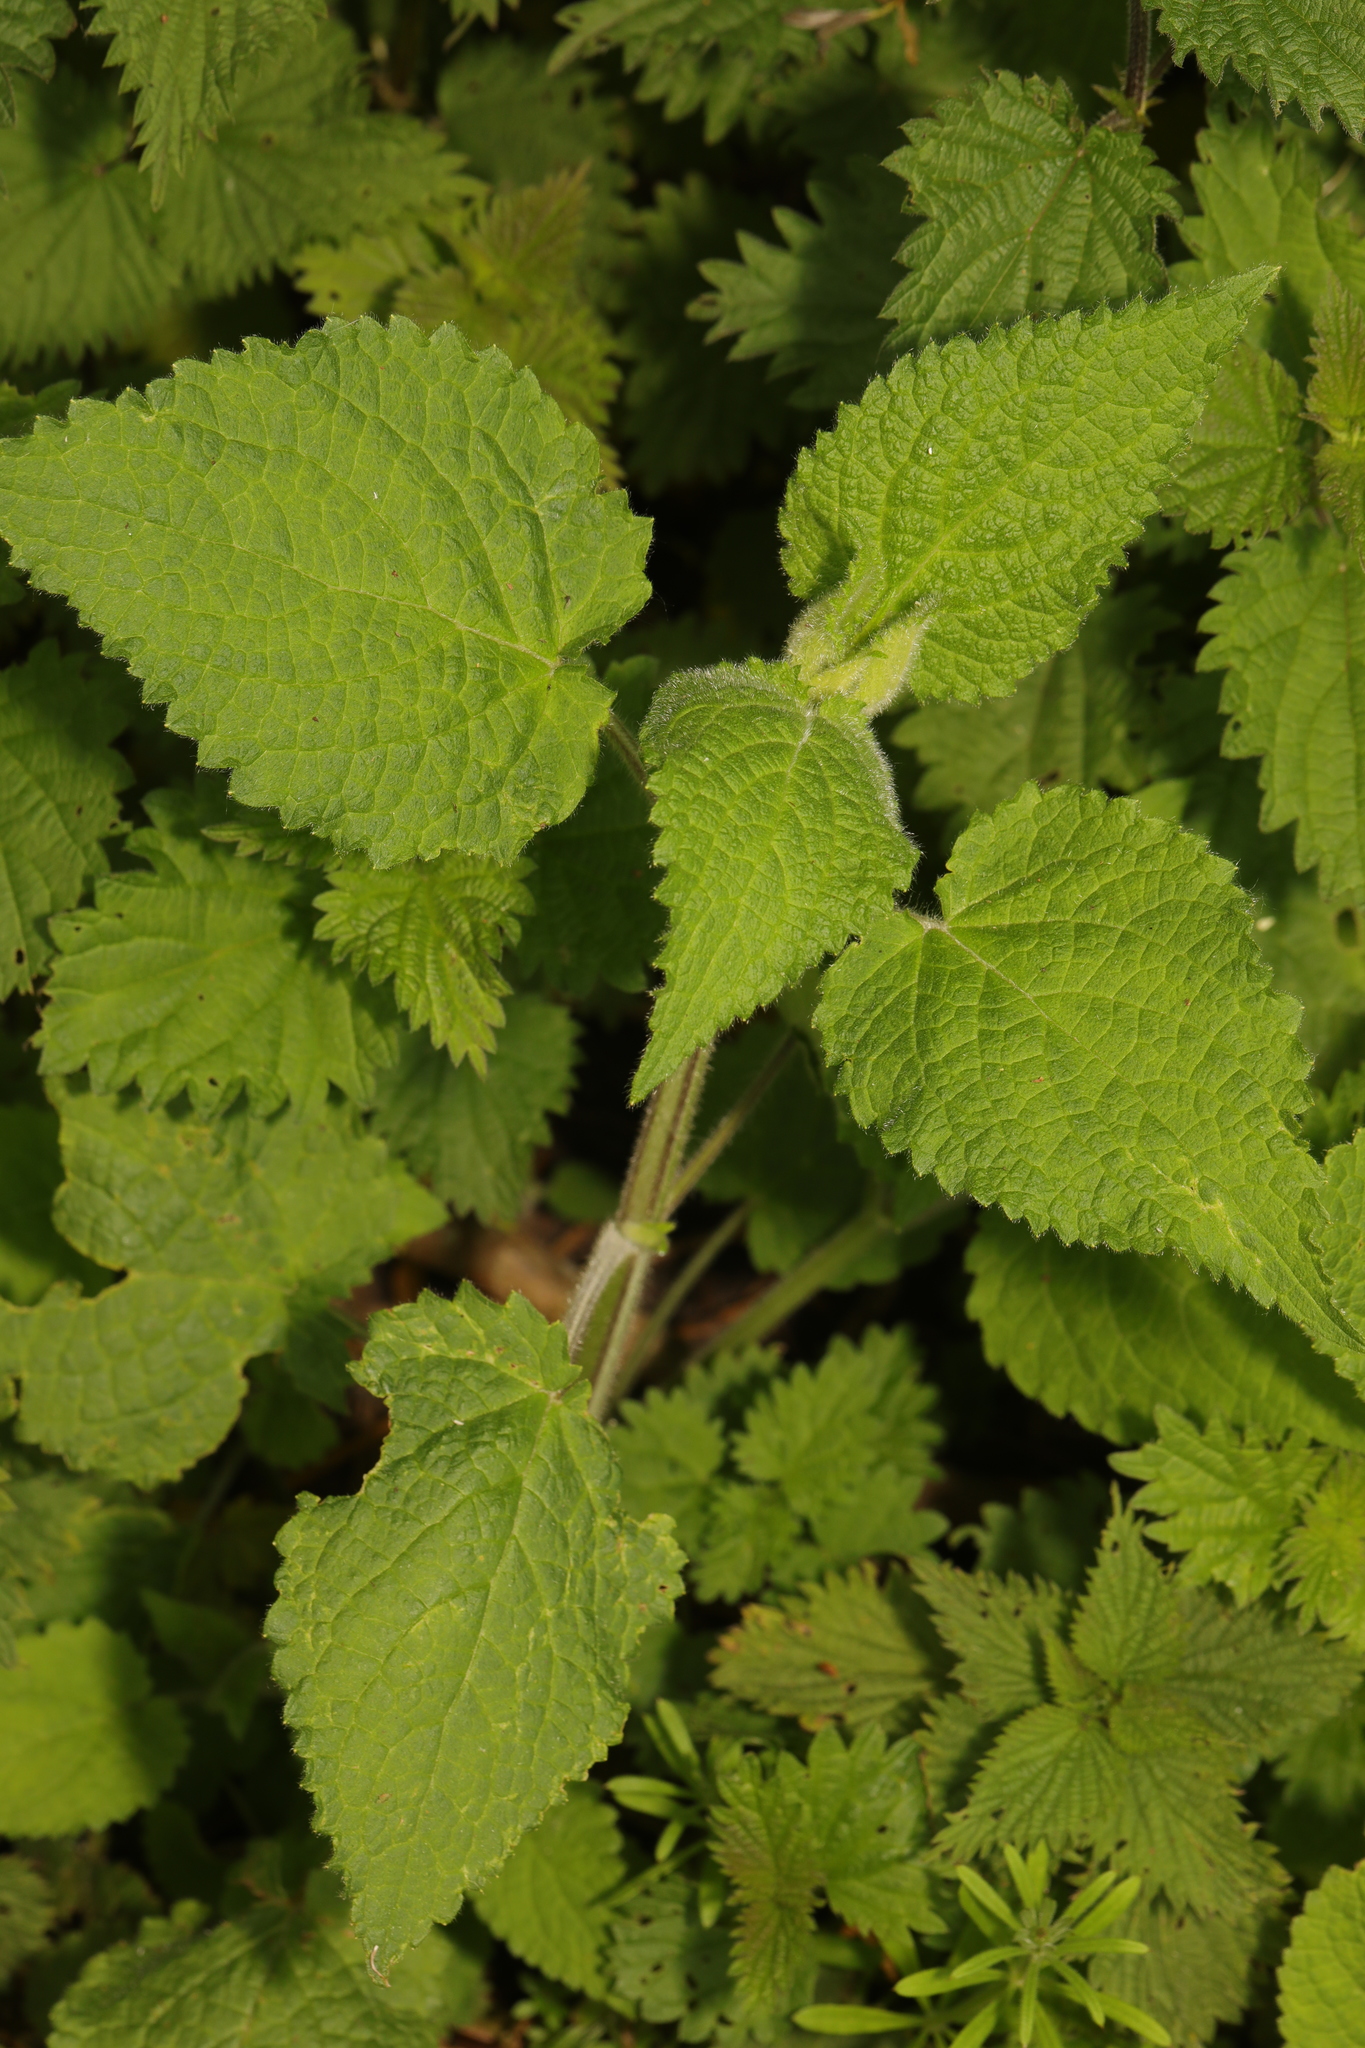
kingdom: Plantae
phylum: Tracheophyta
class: Magnoliopsida
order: Lamiales
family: Lamiaceae
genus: Stachys
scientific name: Stachys sylvatica
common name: Hedge woundwort
